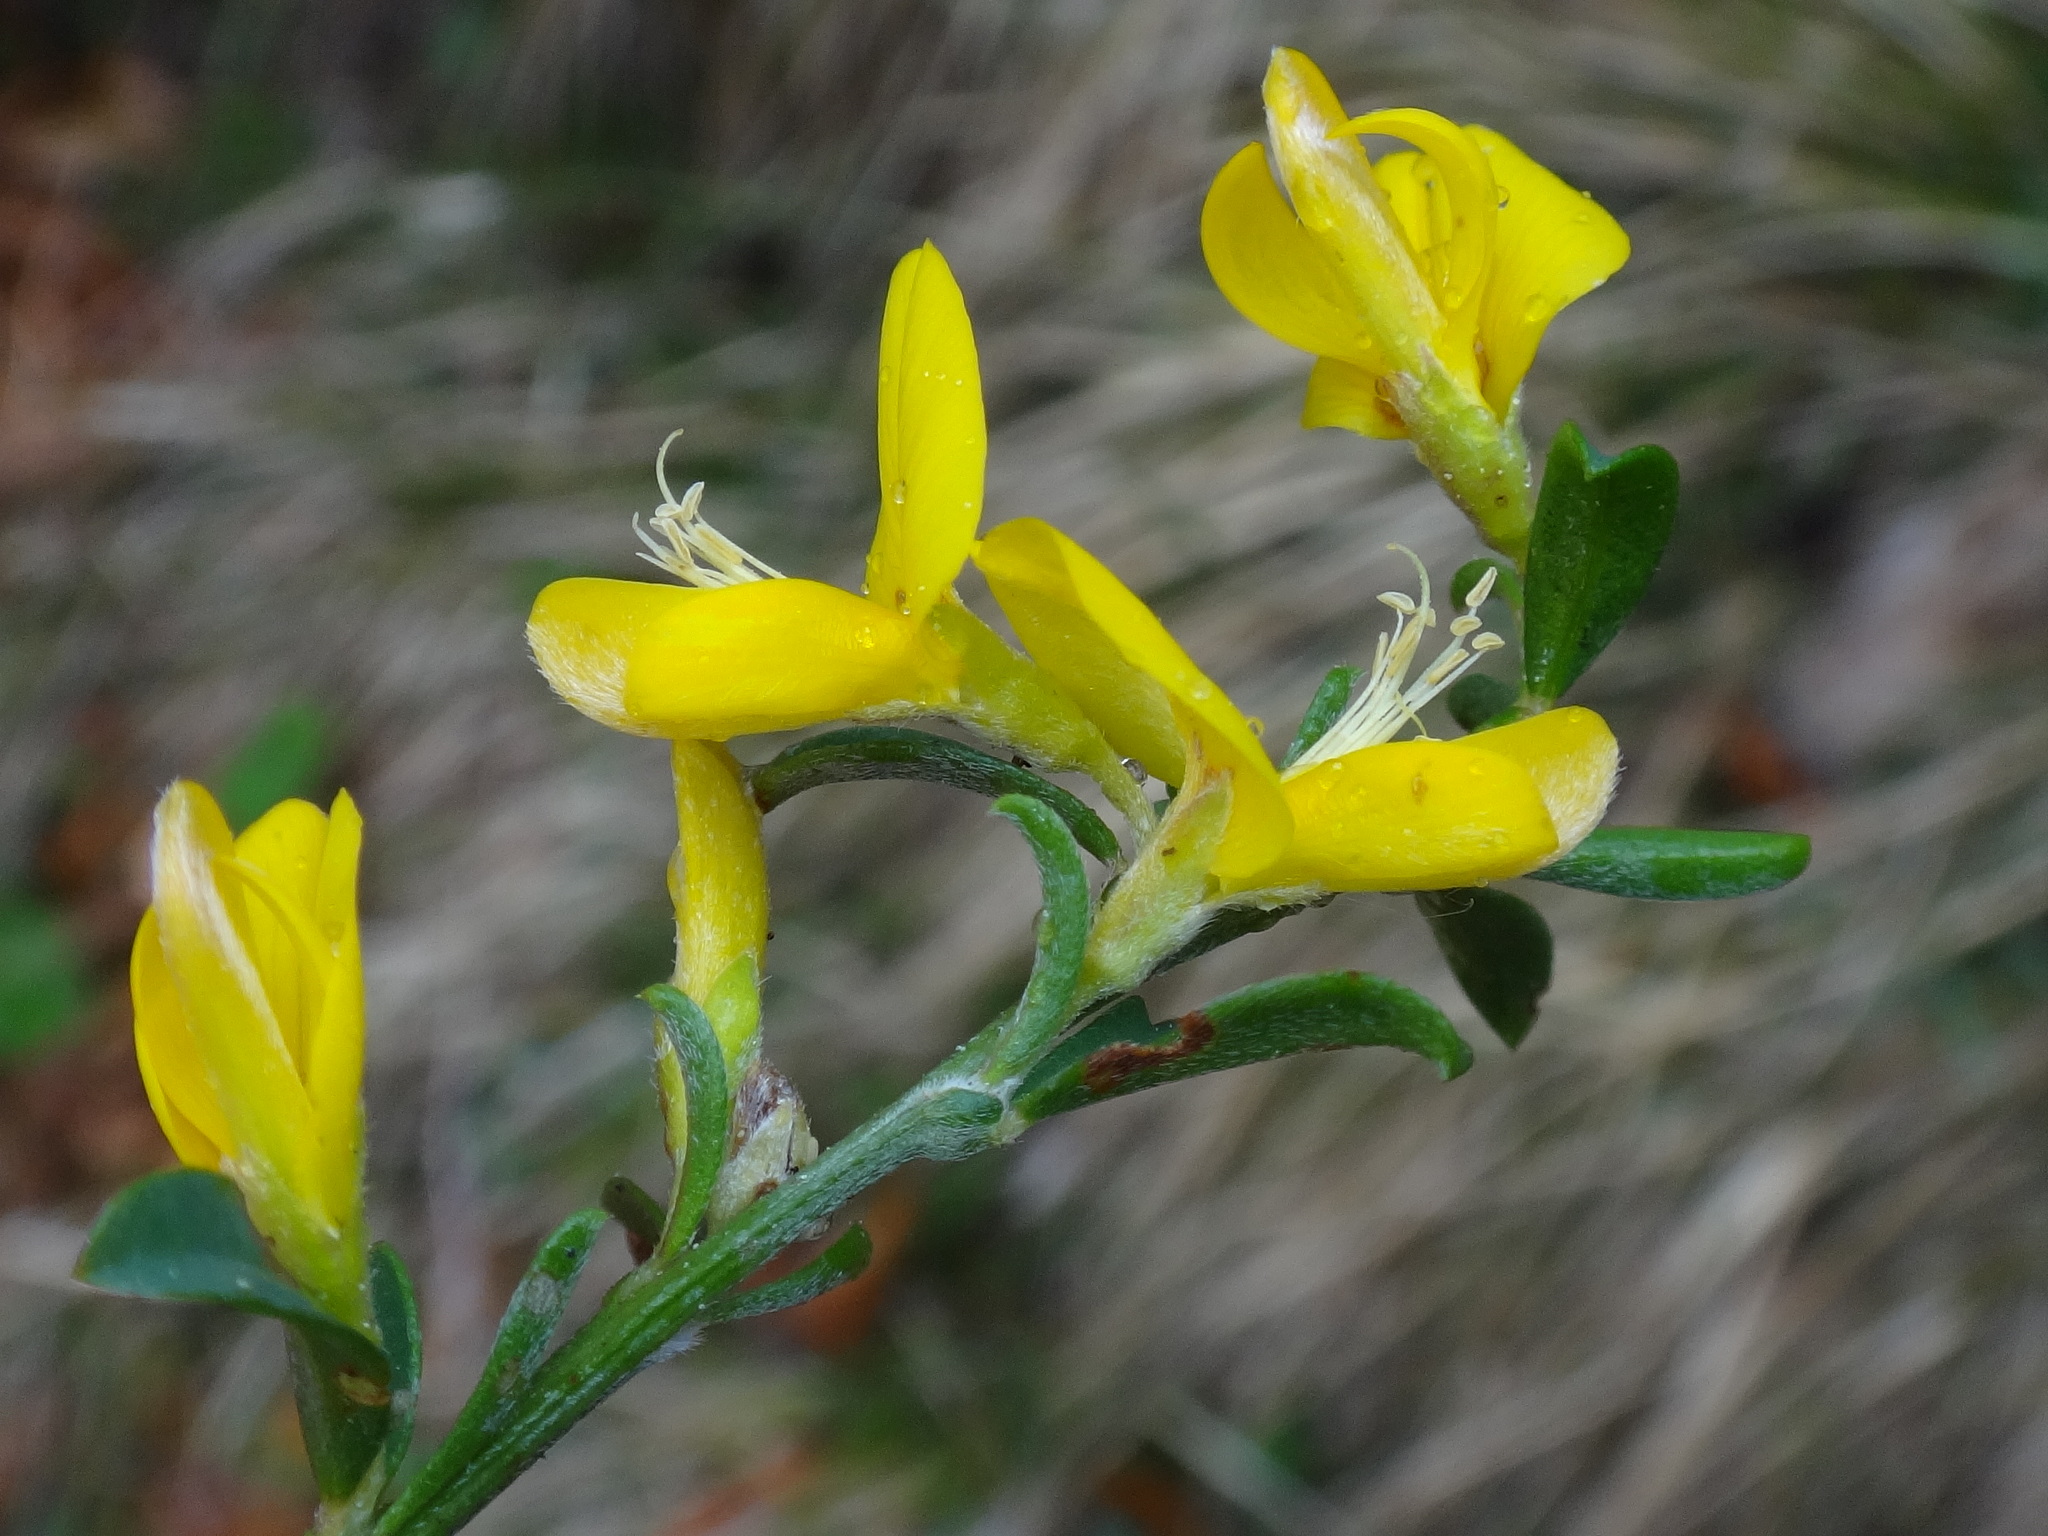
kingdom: Plantae
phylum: Tracheophyta
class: Magnoliopsida
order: Fabales
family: Fabaceae
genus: Genista
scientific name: Genista pilosa
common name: Hairy greenweed
